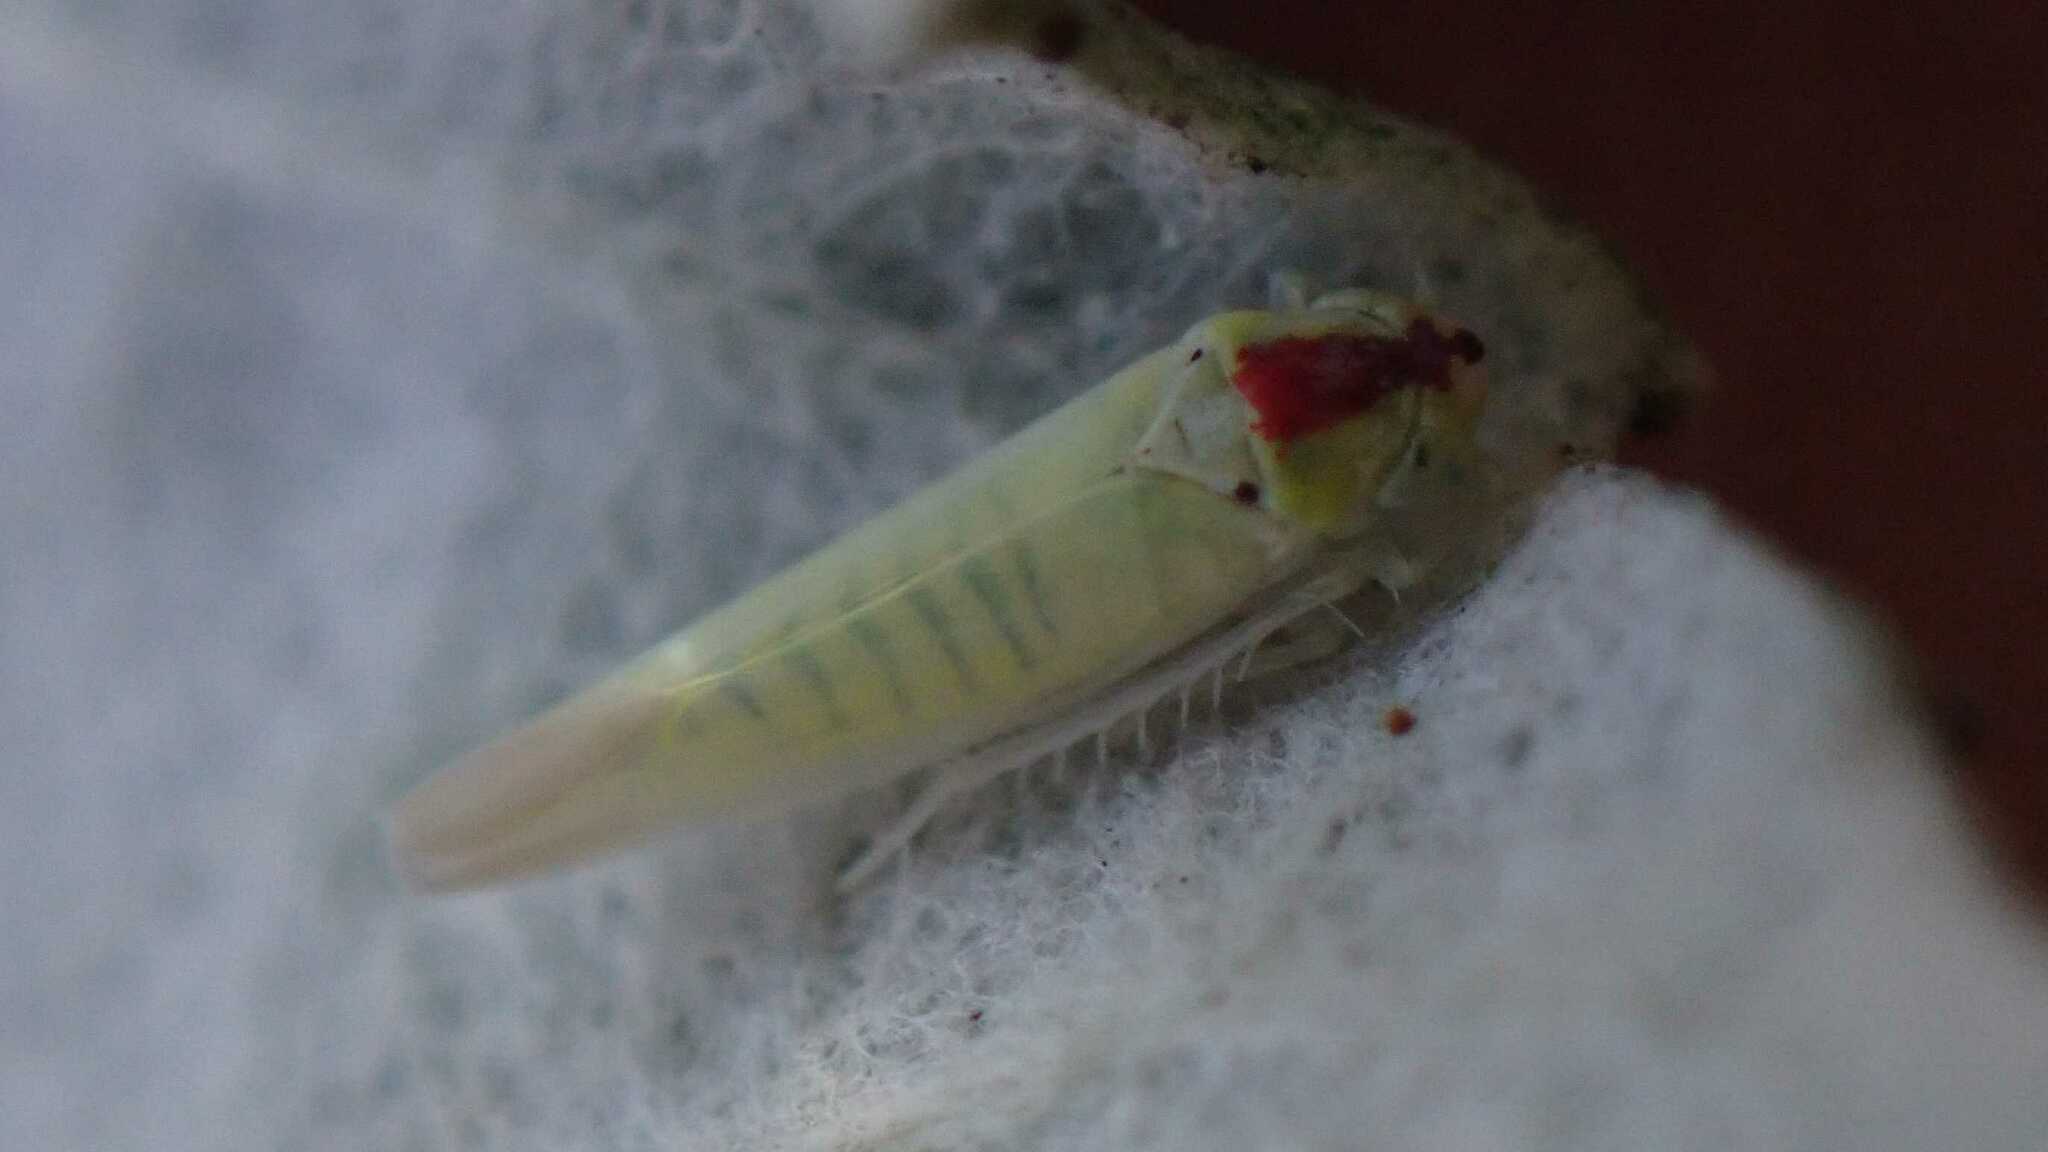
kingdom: Animalia
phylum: Arthropoda
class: Insecta
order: Hemiptera
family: Cicadellidae
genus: Zygina
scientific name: Zygina nivea
